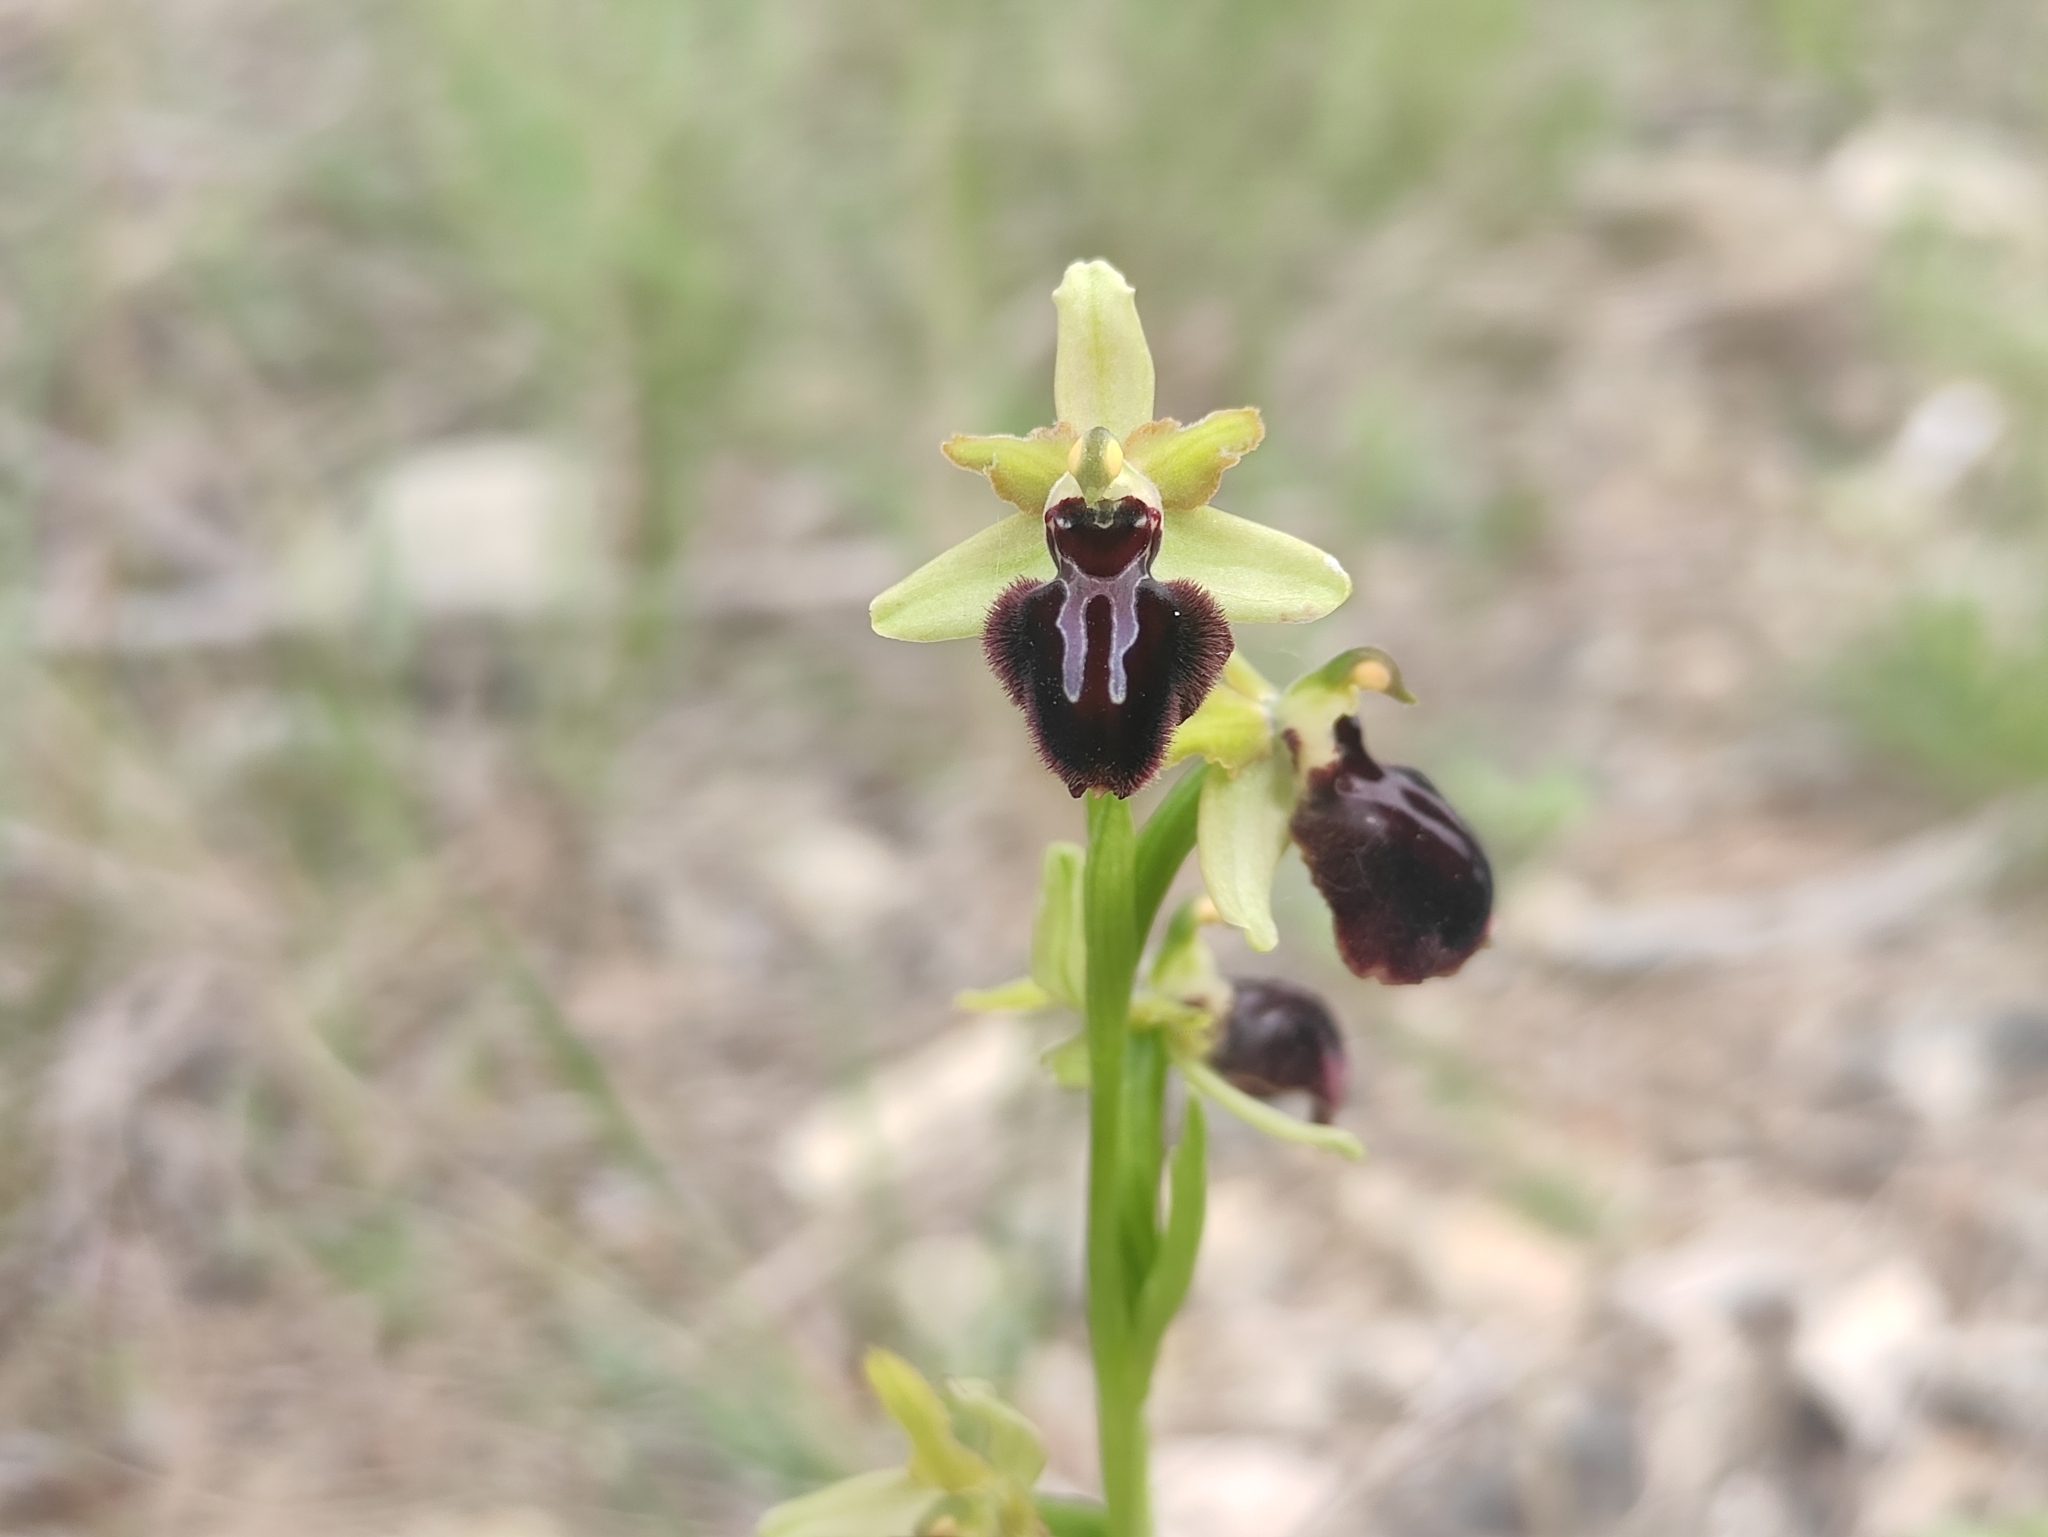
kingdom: Plantae
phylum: Tracheophyta
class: Liliopsida
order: Asparagales
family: Orchidaceae
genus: Ophrys
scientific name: Ophrys sphegodes
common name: Early spider-orchid
